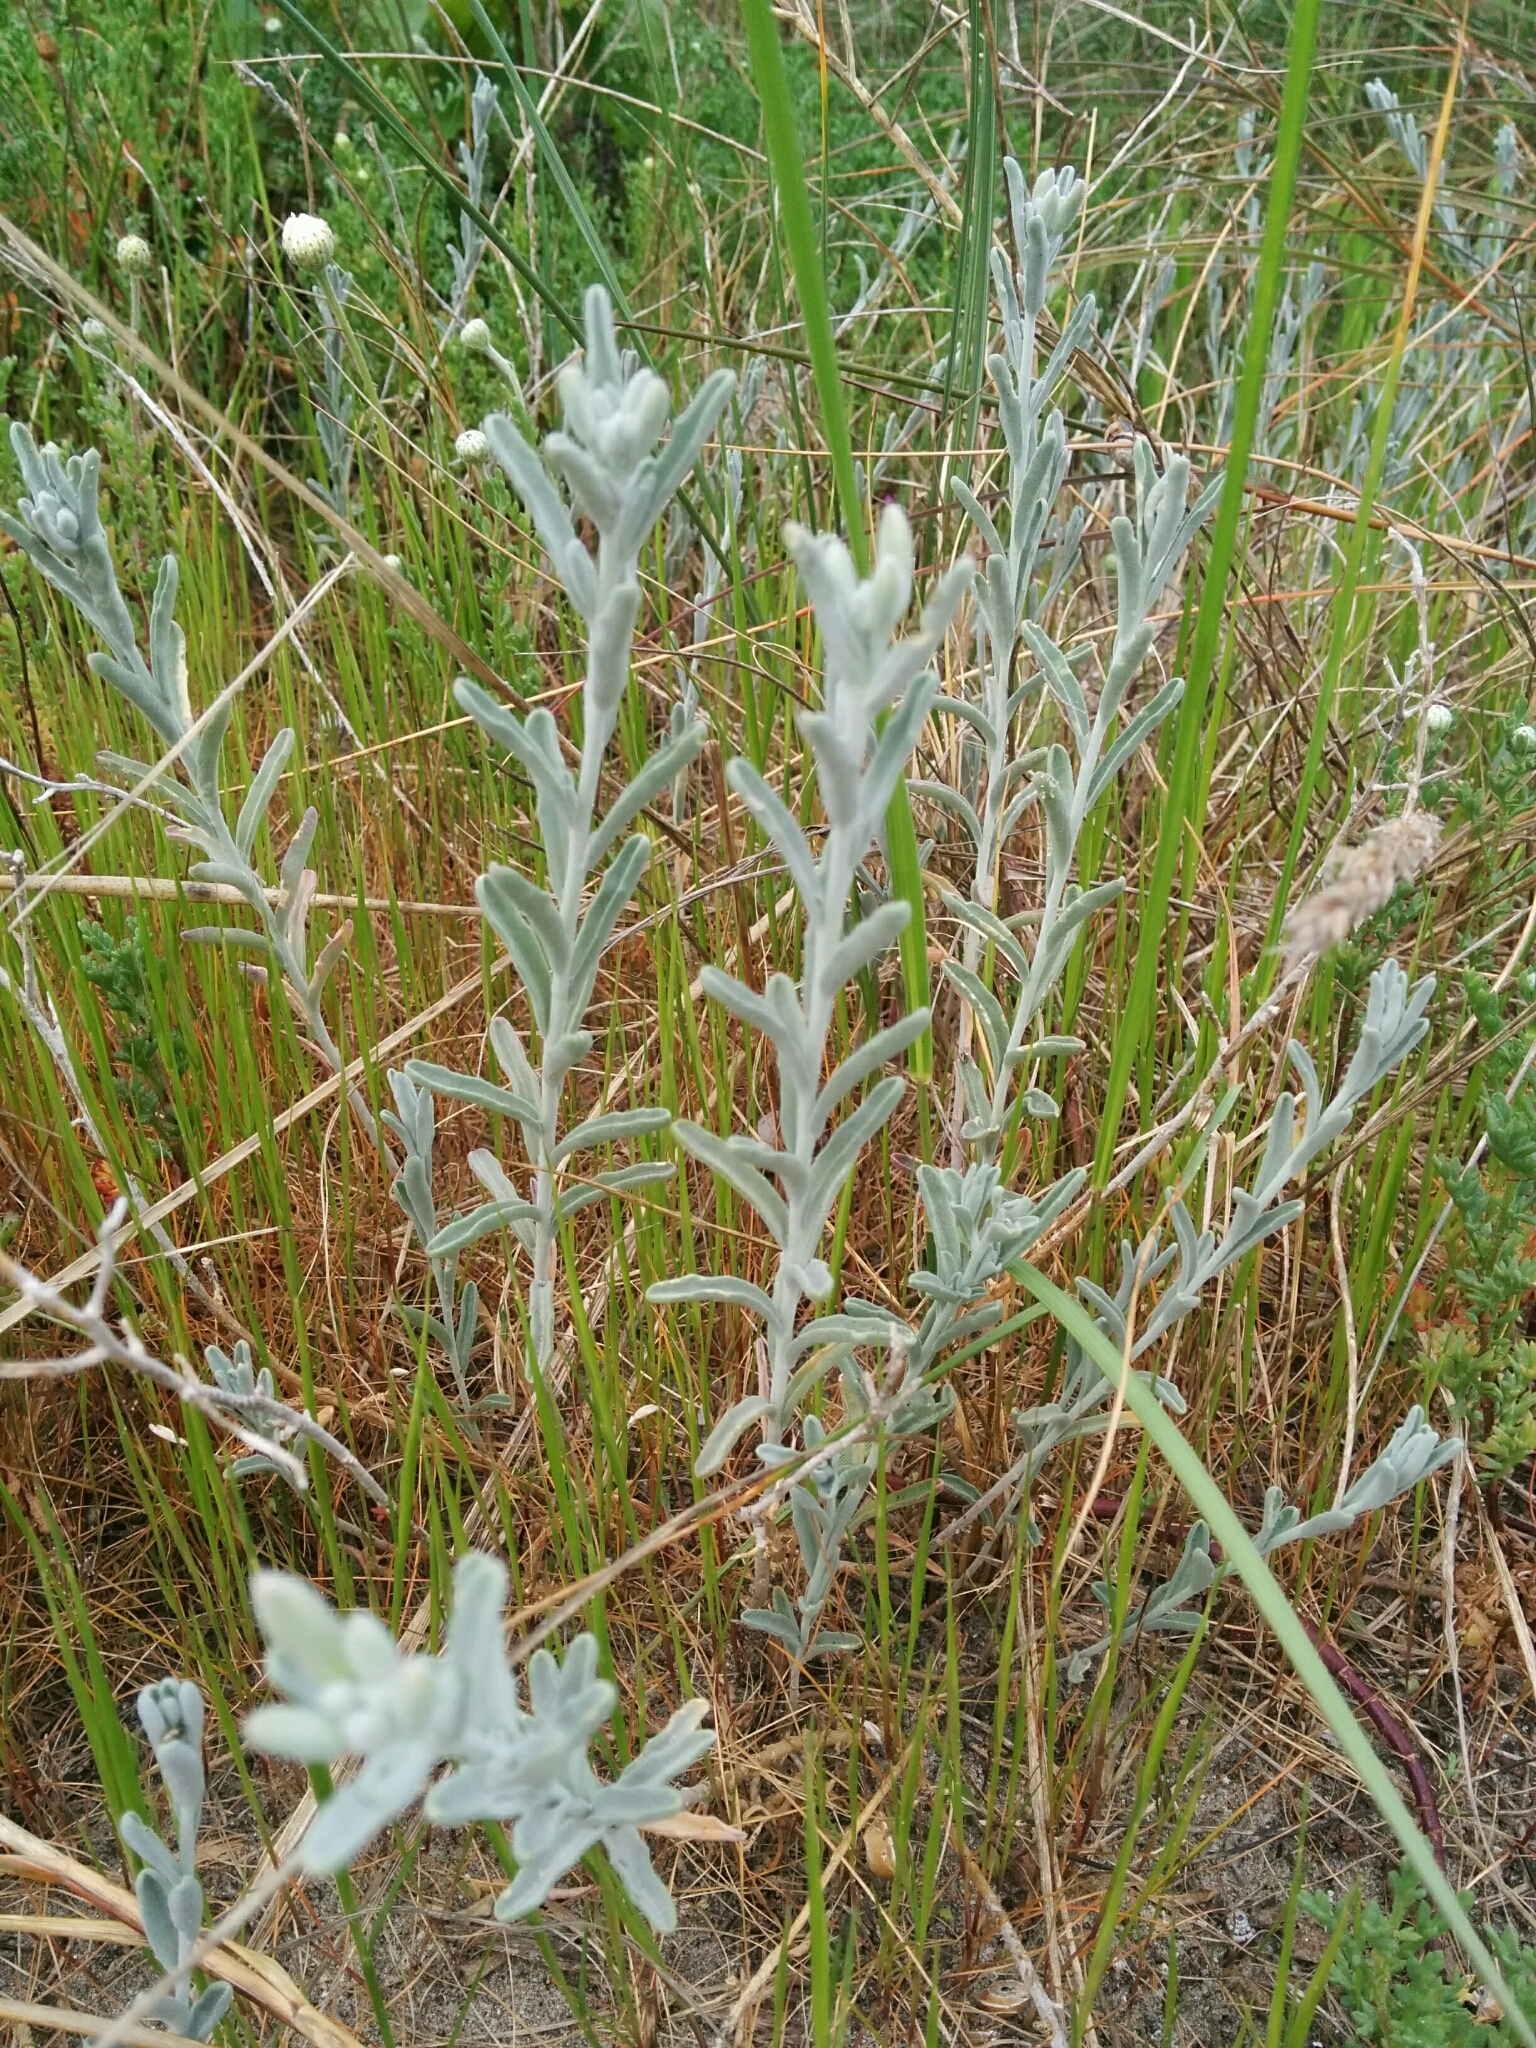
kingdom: Plantae
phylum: Tracheophyta
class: Magnoliopsida
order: Brassicales
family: Brassicaceae
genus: Marcuskochia
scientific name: Marcuskochia littorea
